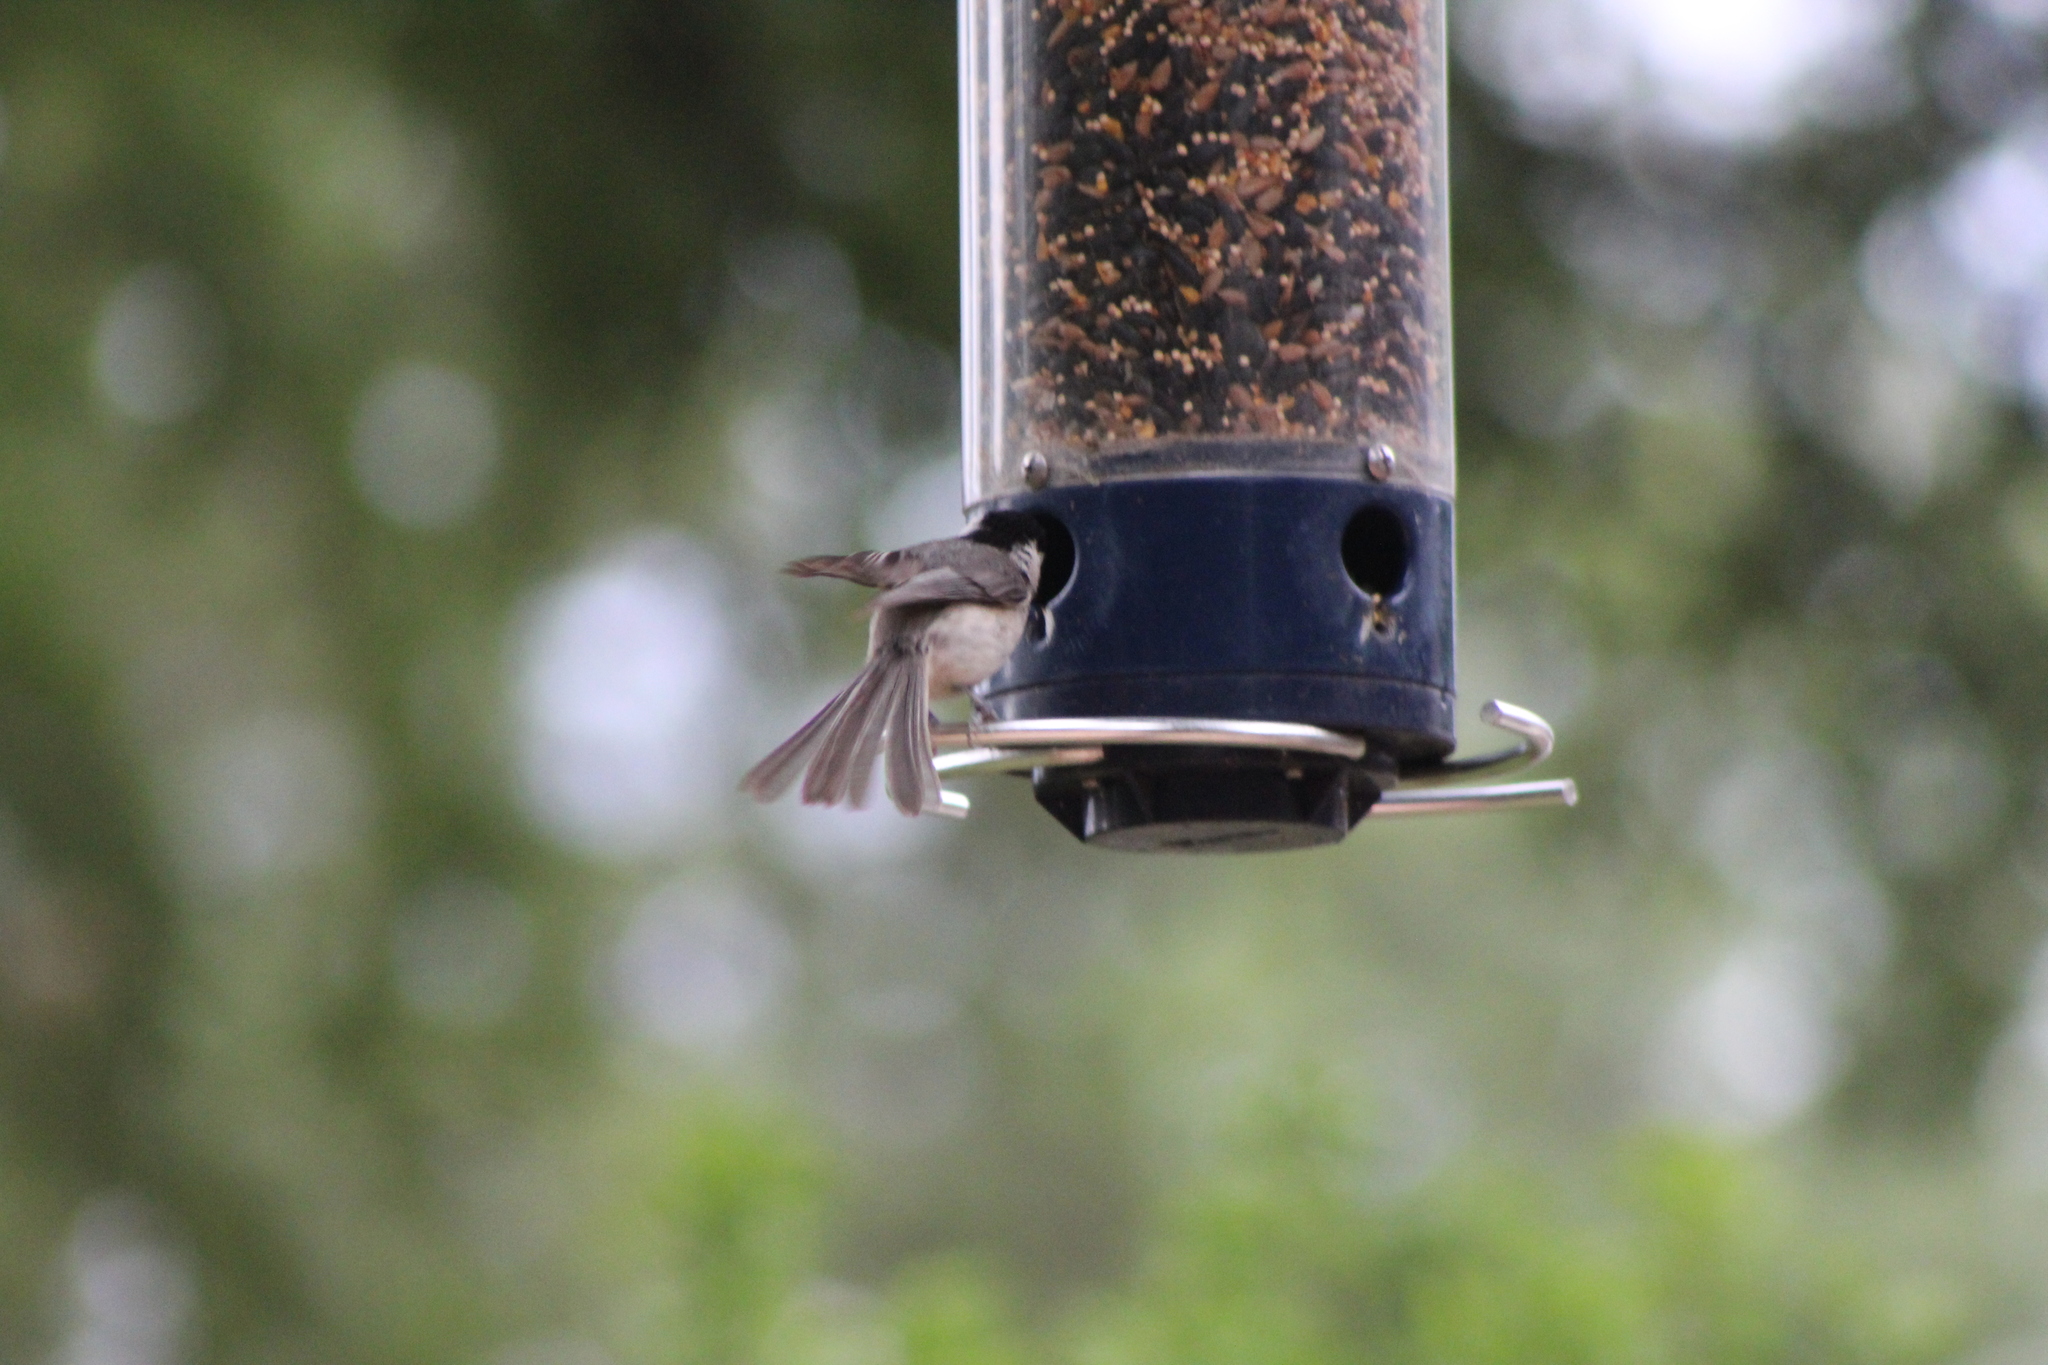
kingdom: Animalia
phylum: Chordata
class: Aves
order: Passeriformes
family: Paridae
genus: Poecile
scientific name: Poecile carolinensis
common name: Carolina chickadee
